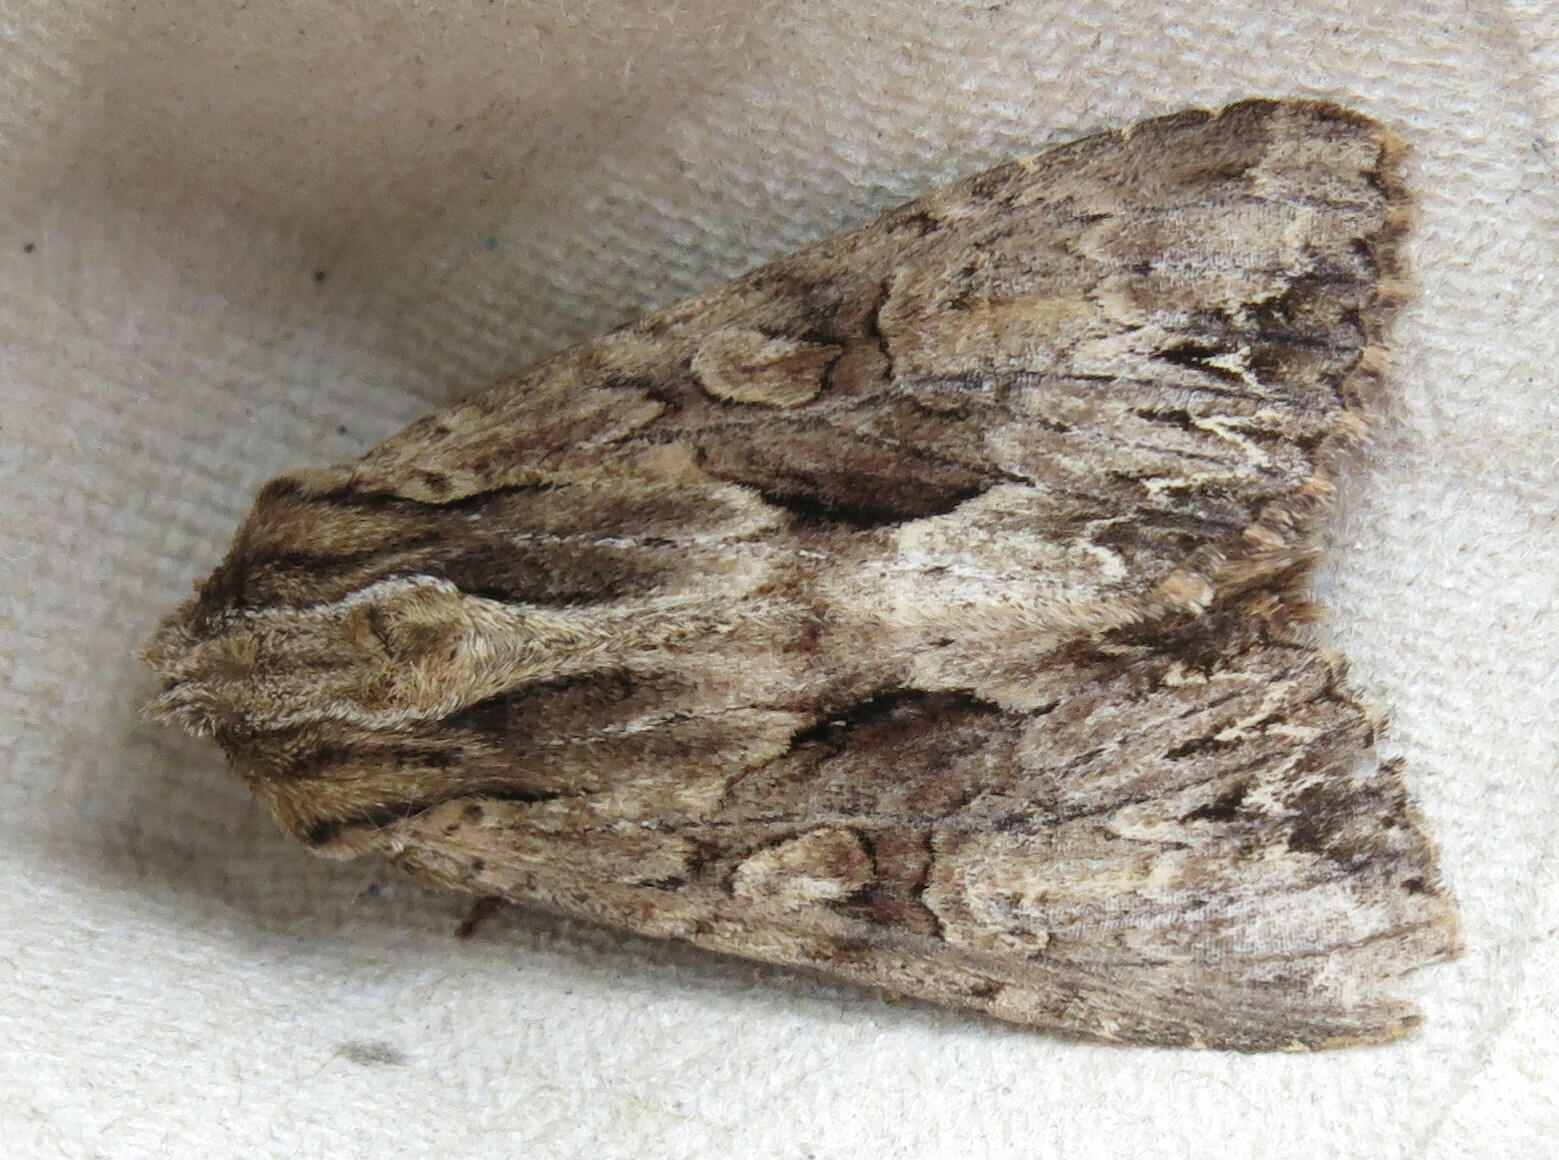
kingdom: Animalia
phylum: Arthropoda
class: Insecta
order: Lepidoptera
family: Noctuidae
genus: Apamea
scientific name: Apamea monoglypha
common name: Dark arches
